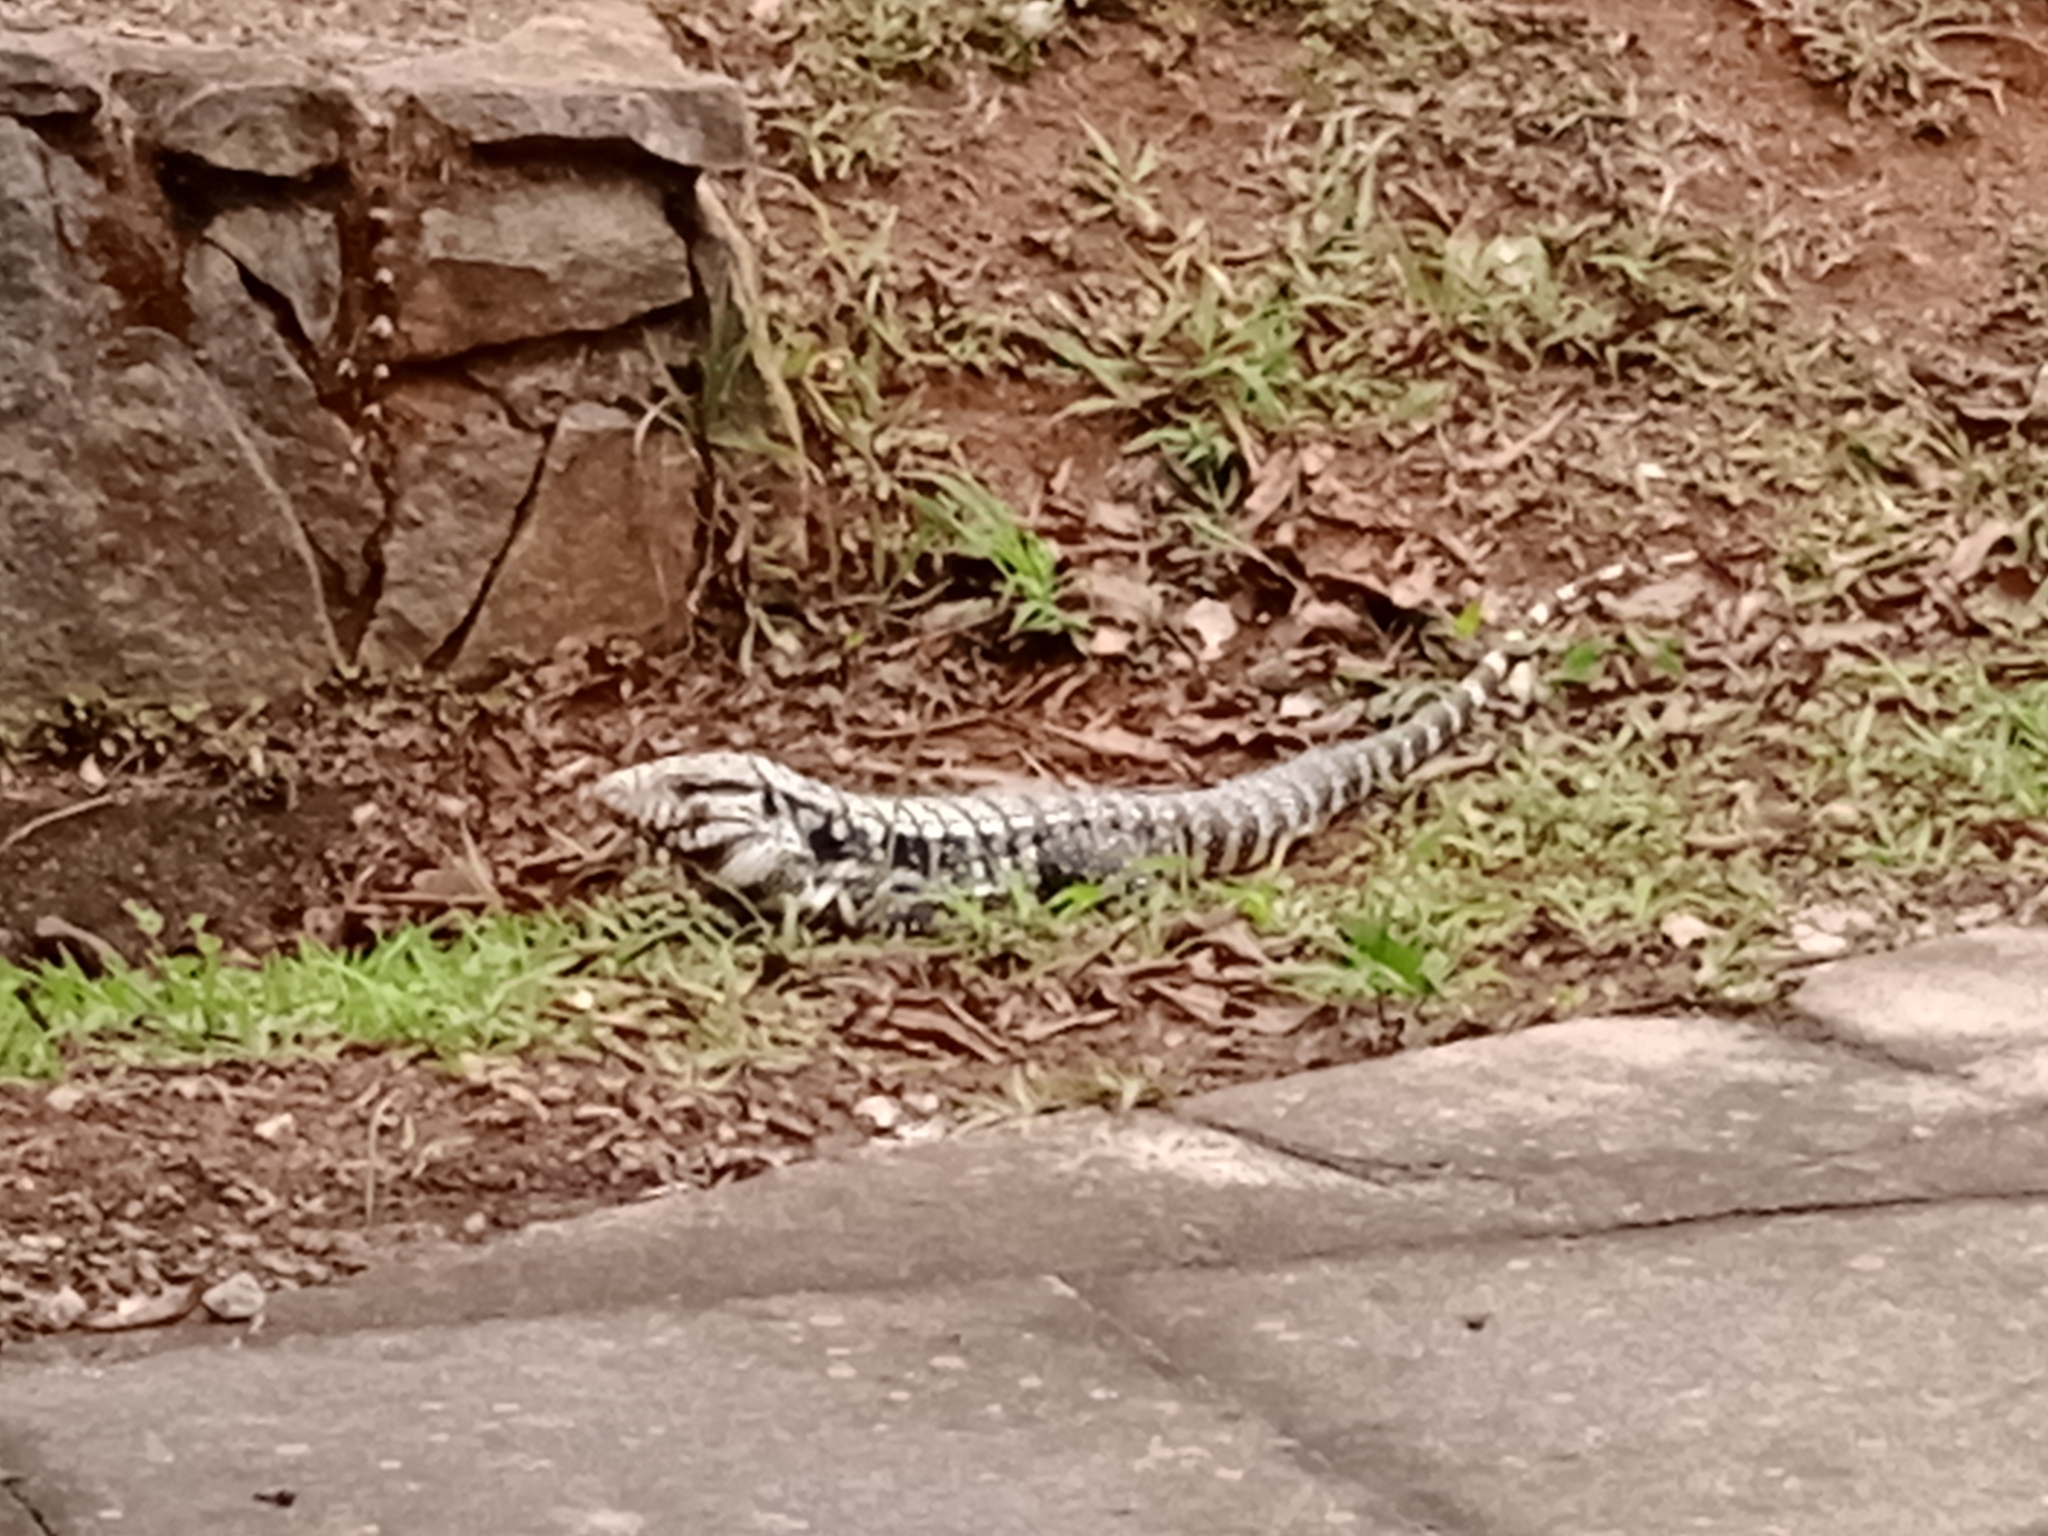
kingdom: Animalia
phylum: Chordata
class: Squamata
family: Teiidae
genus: Salvator
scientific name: Salvator merianae
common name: Argentine black and white tegu
